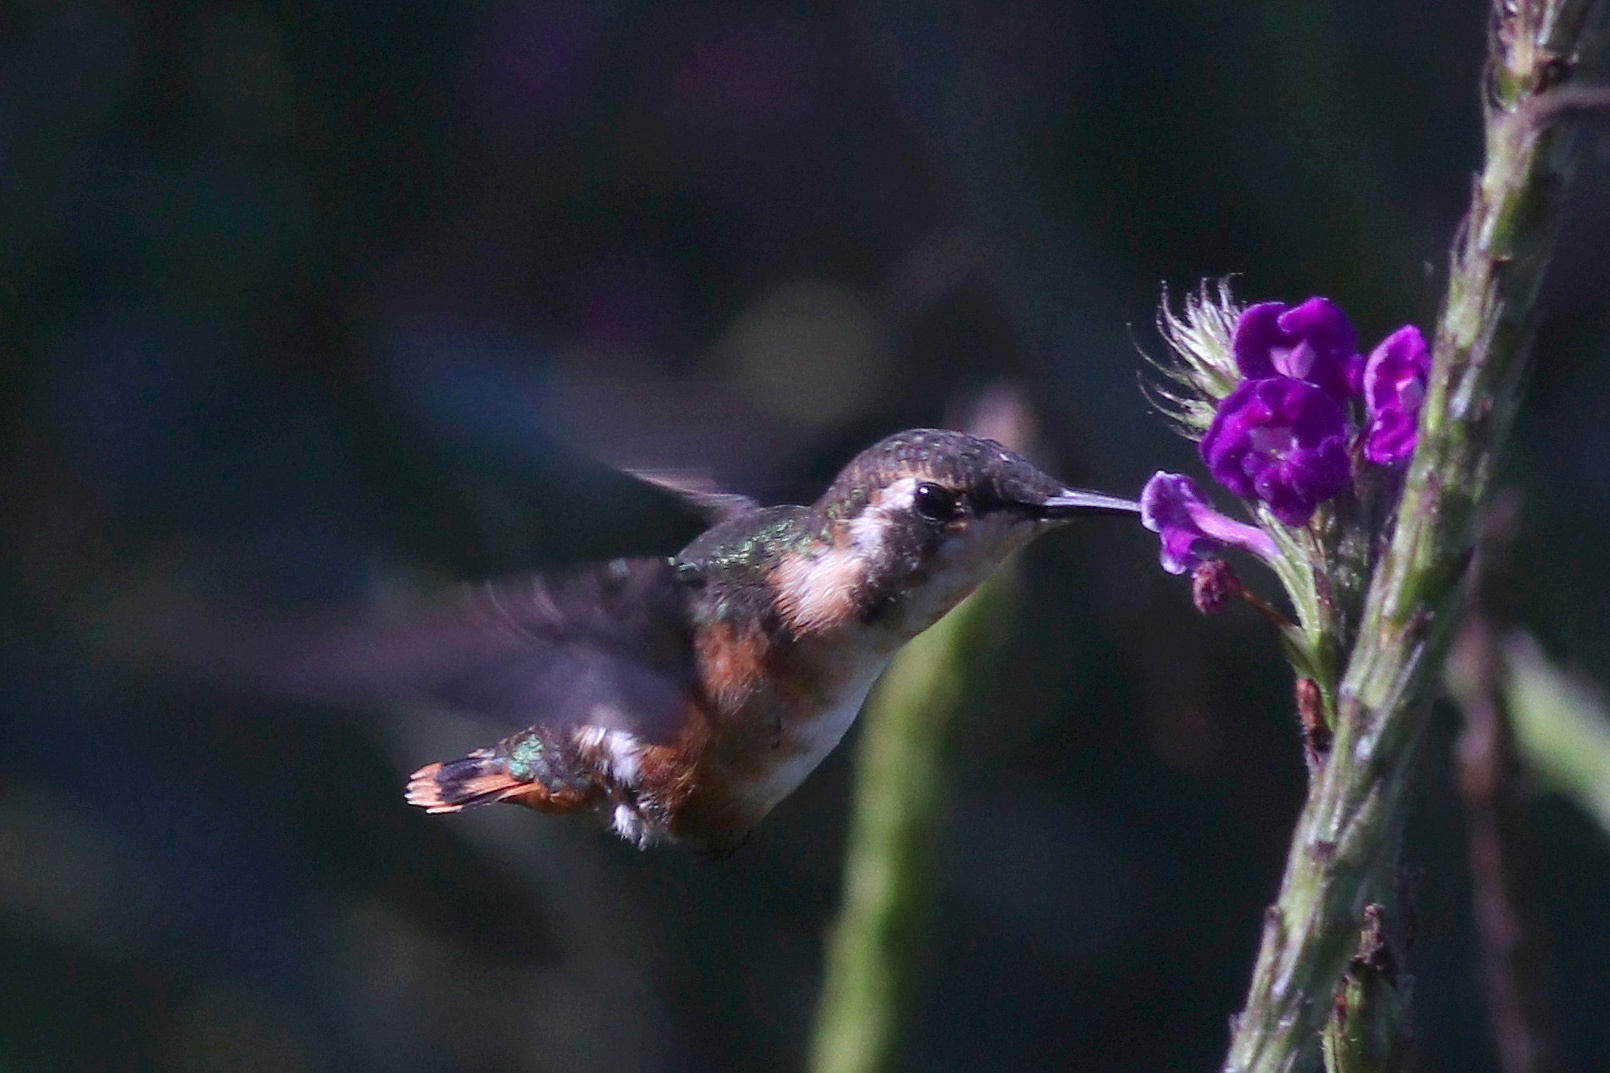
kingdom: Animalia
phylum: Chordata
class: Aves
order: Apodiformes
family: Trochilidae
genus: Chaetocercus
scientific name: Chaetocercus mulsant
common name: White-bellied woodstar
